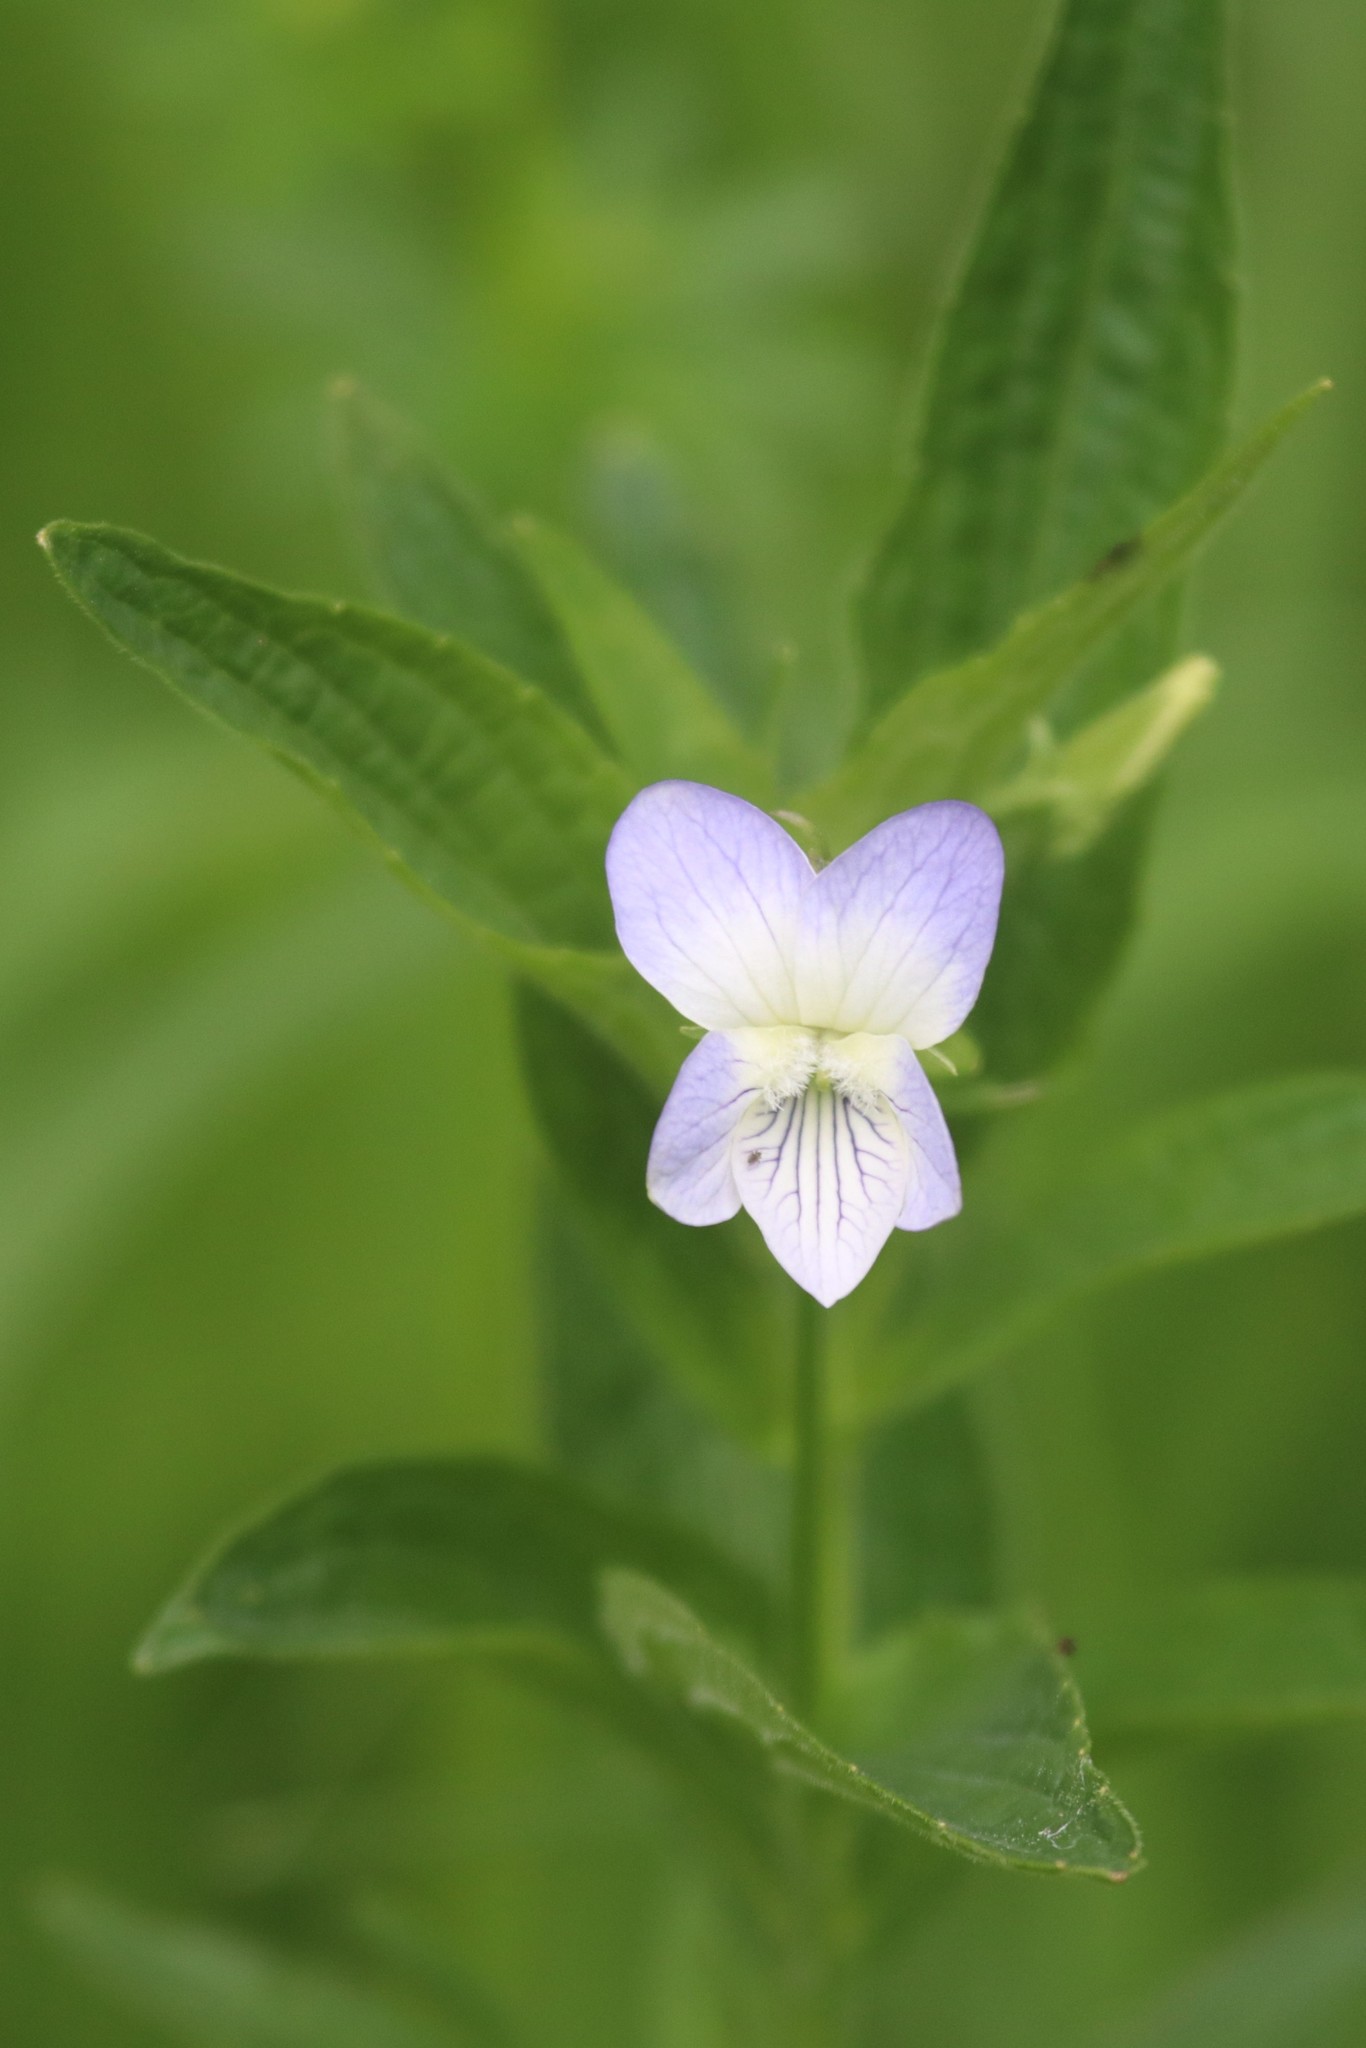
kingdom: Plantae
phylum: Tracheophyta
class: Magnoliopsida
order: Malpighiales
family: Violaceae
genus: Viola
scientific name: Viola elatior
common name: Tall violet
